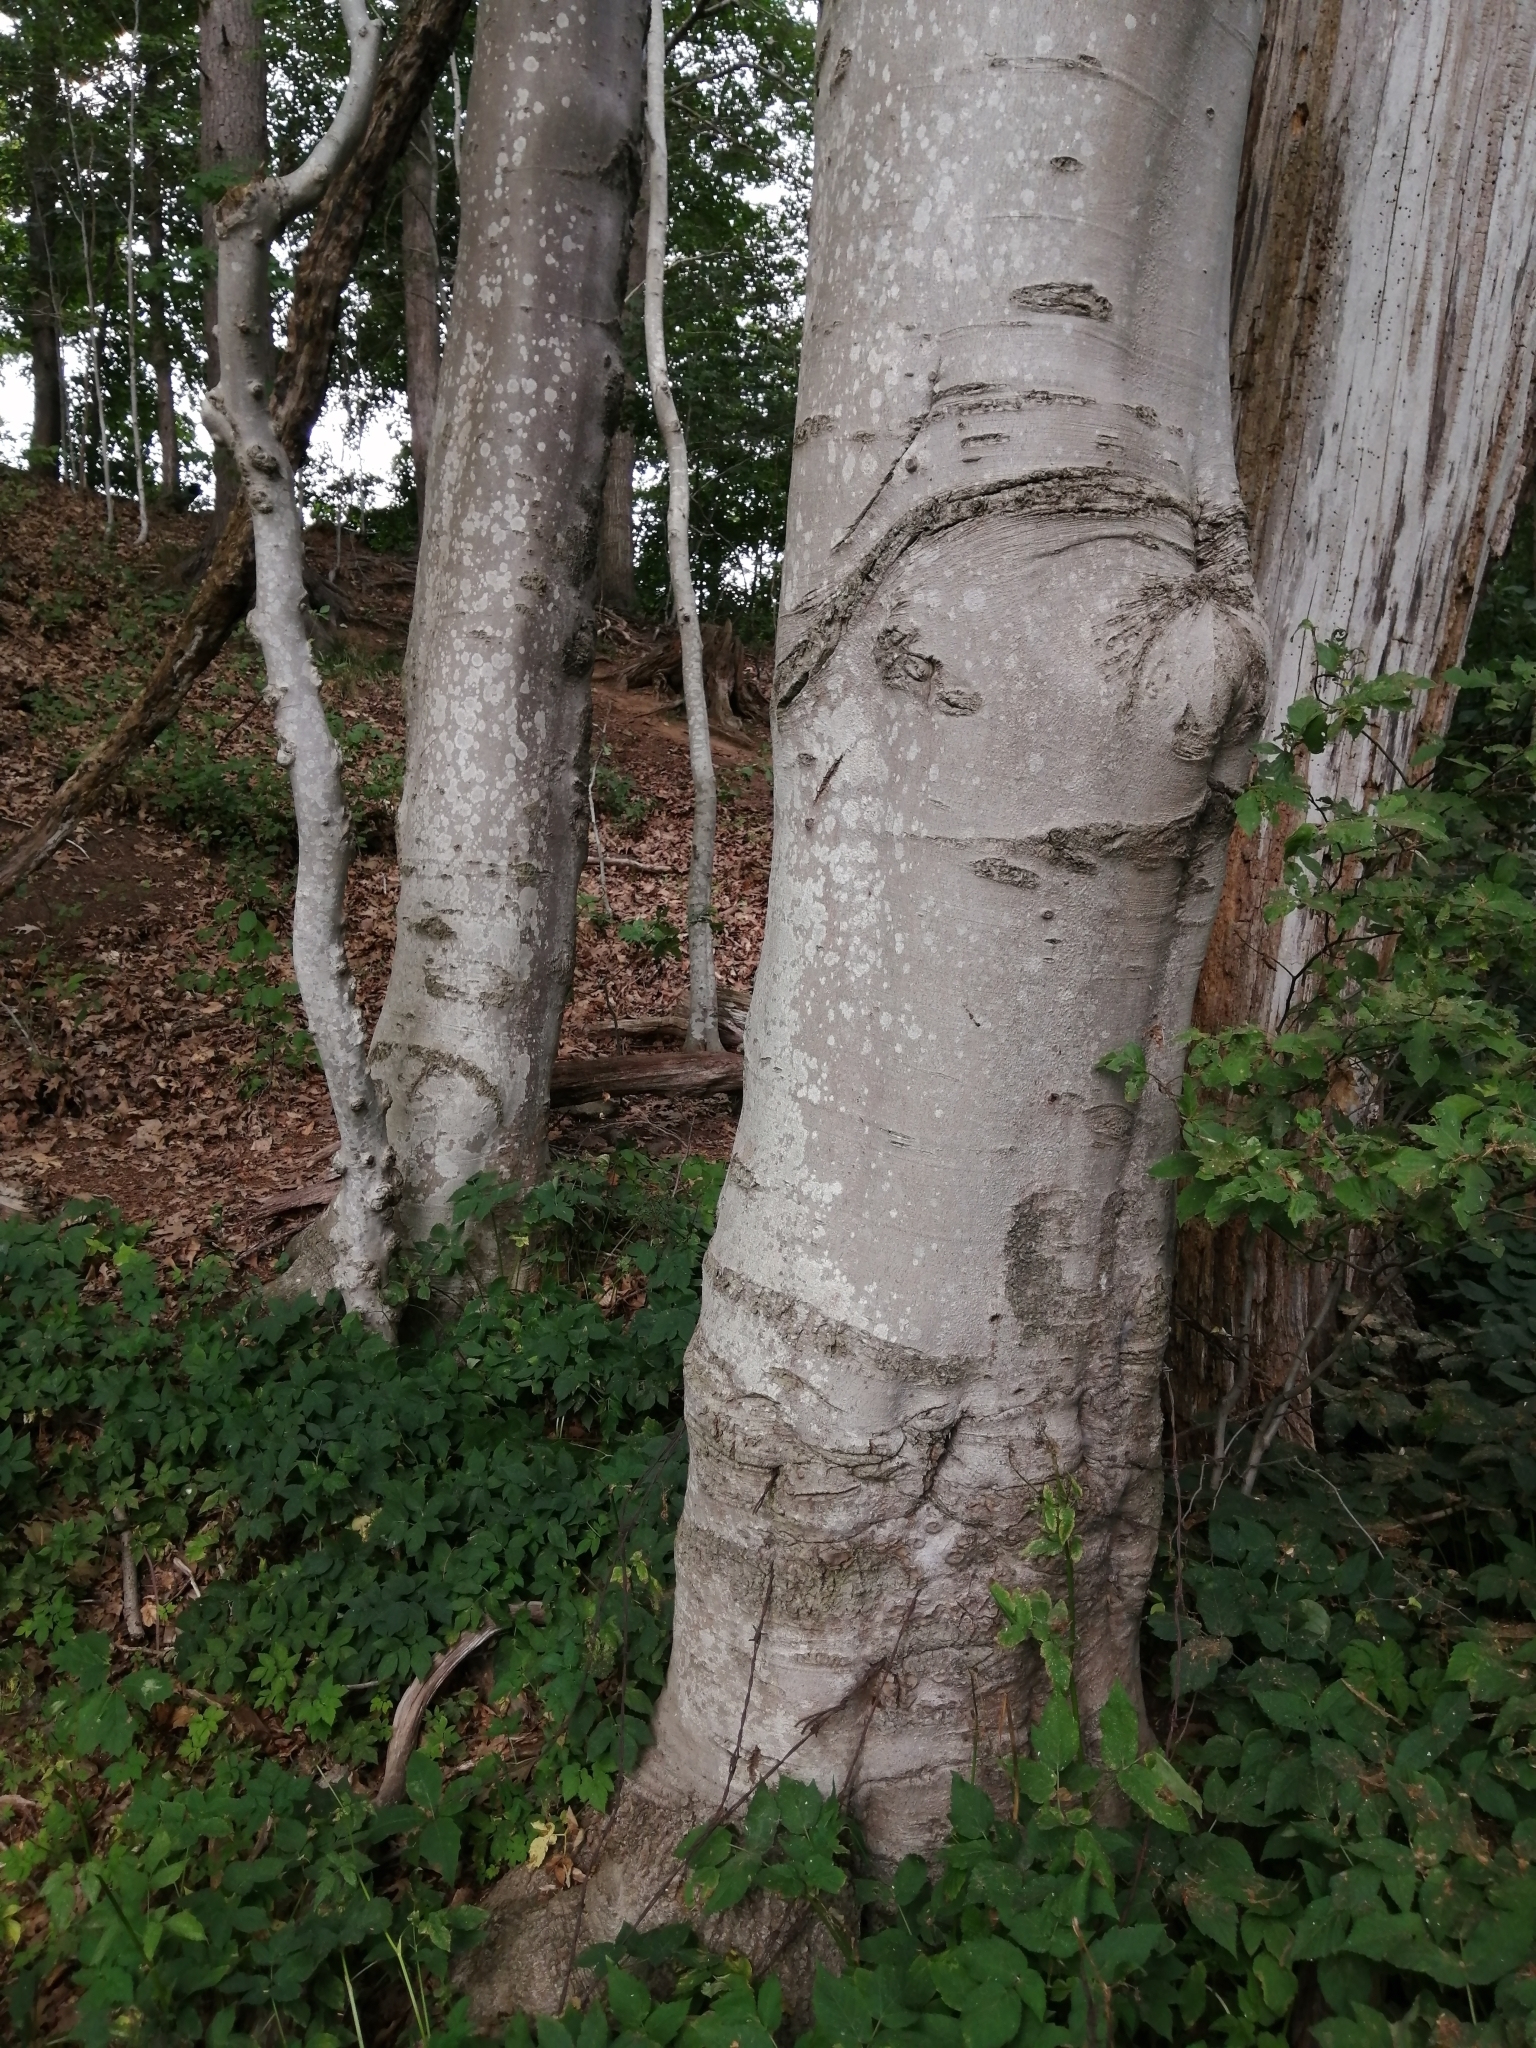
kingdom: Plantae
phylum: Tracheophyta
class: Magnoliopsida
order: Fagales
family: Fagaceae
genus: Fagus
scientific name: Fagus grandifolia
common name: American beech
